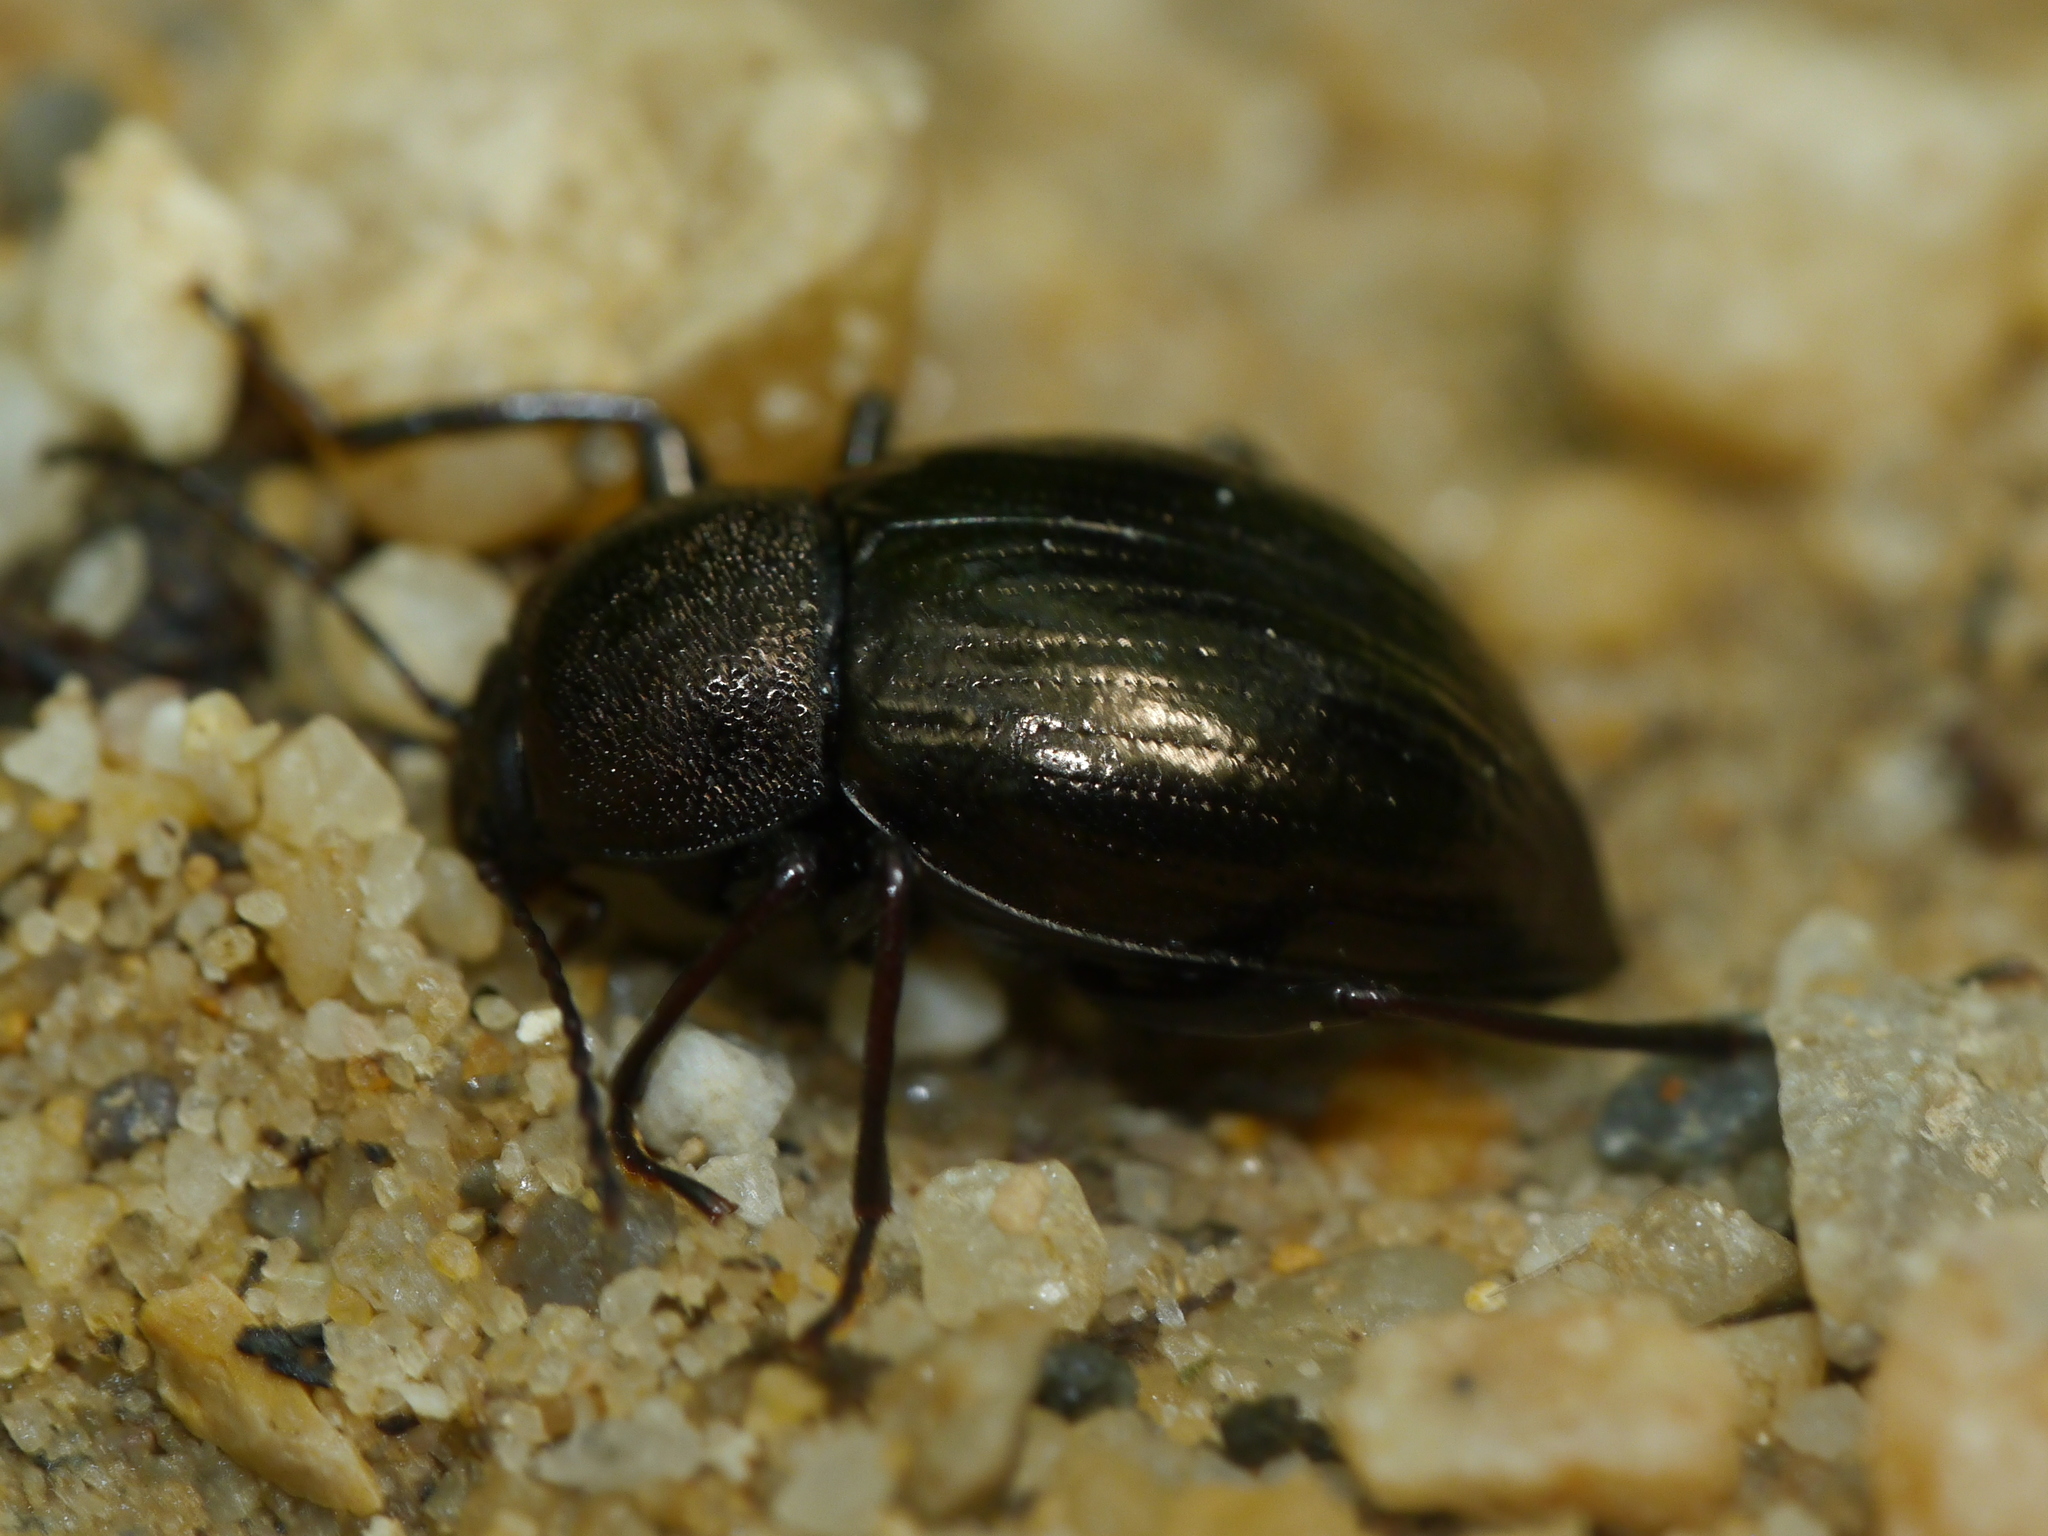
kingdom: Animalia
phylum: Arthropoda
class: Insecta
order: Coleoptera
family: Tenebrionidae
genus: Meracantha
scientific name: Meracantha contracta
